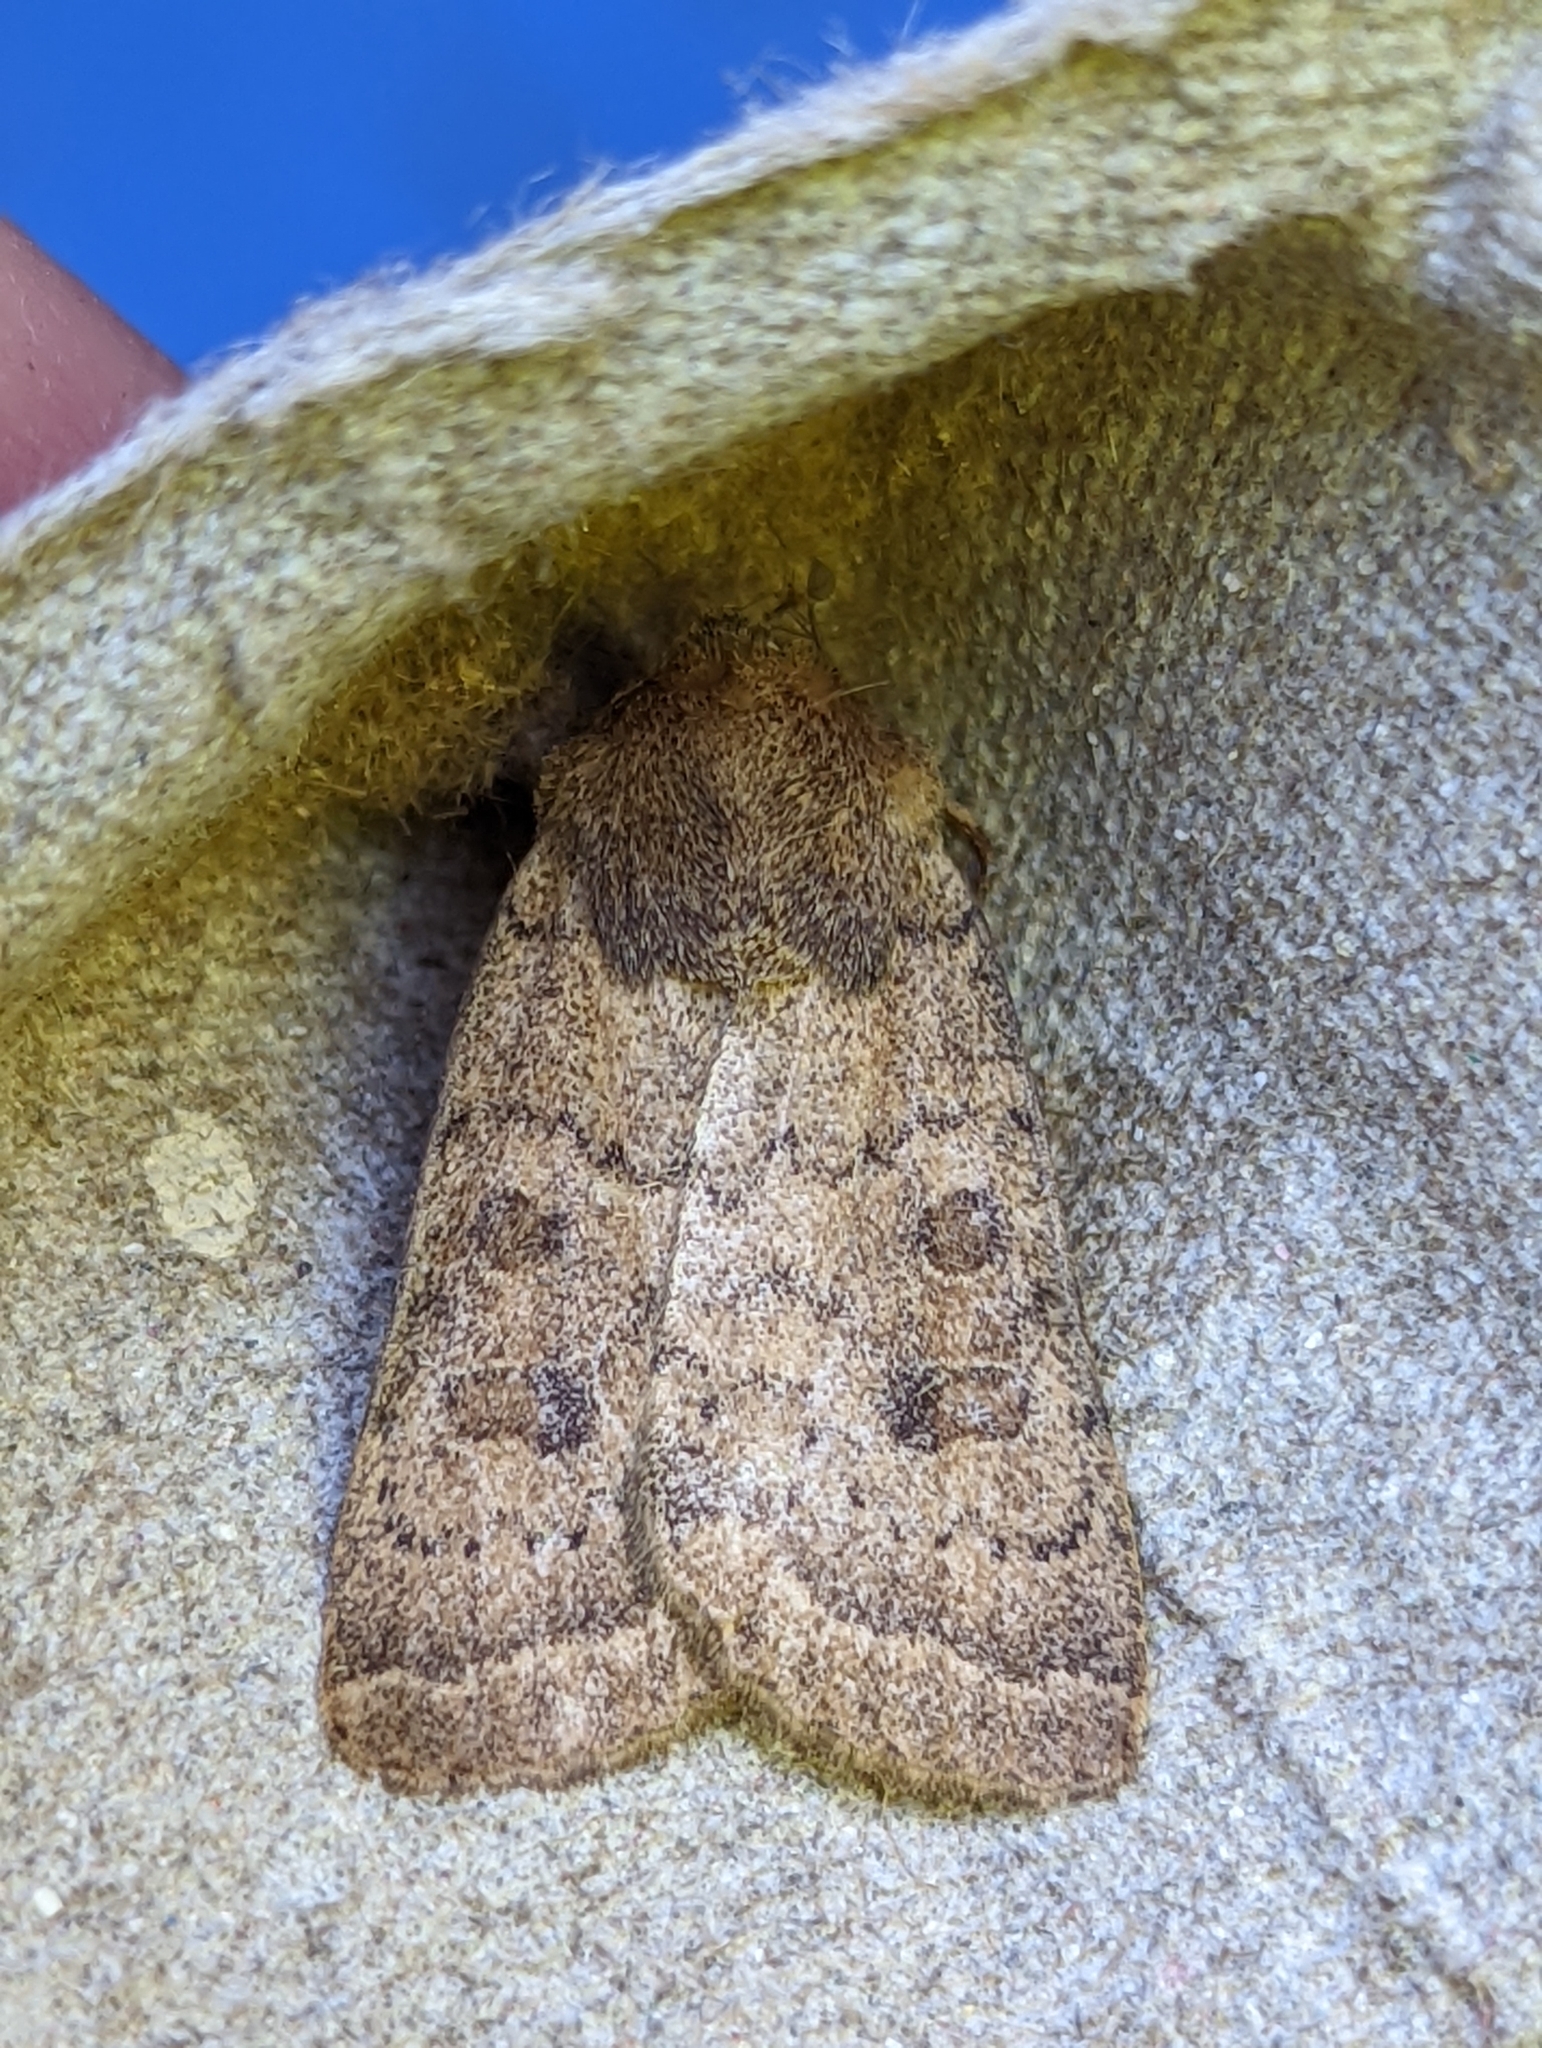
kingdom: Animalia
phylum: Arthropoda
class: Insecta
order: Lepidoptera
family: Noctuidae
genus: Hoplodrina
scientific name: Hoplodrina octogenaria
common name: Uncertain
